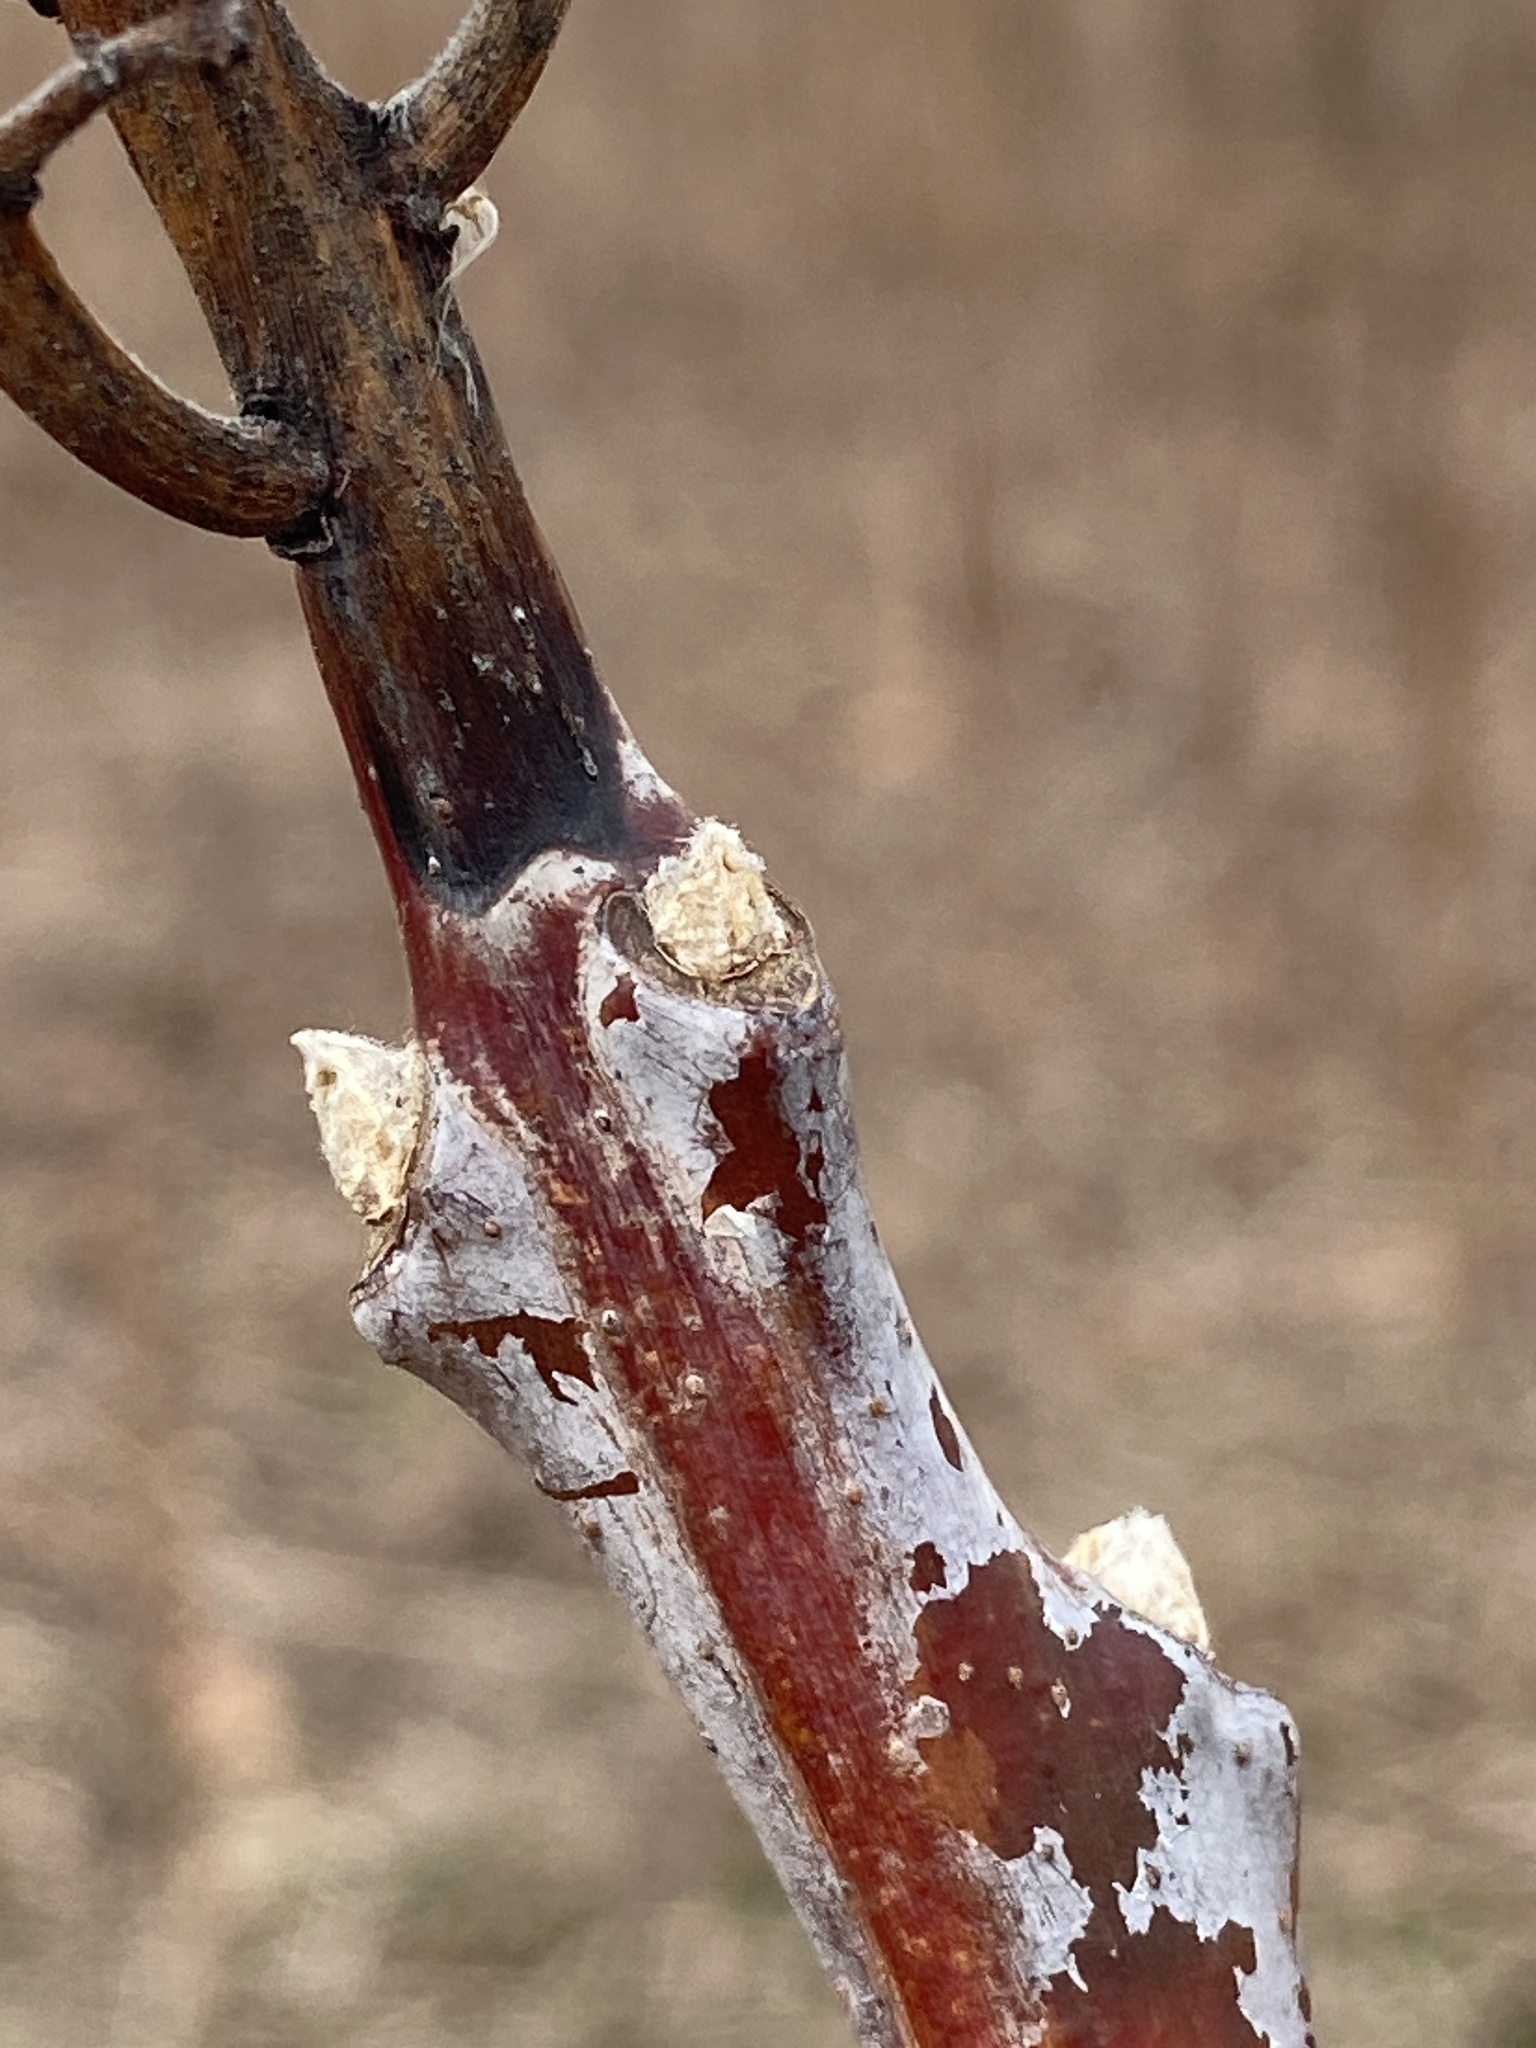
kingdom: Plantae
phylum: Tracheophyta
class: Magnoliopsida
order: Sapindales
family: Anacardiaceae
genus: Rhus
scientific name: Rhus glabra
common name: Scarlet sumac
